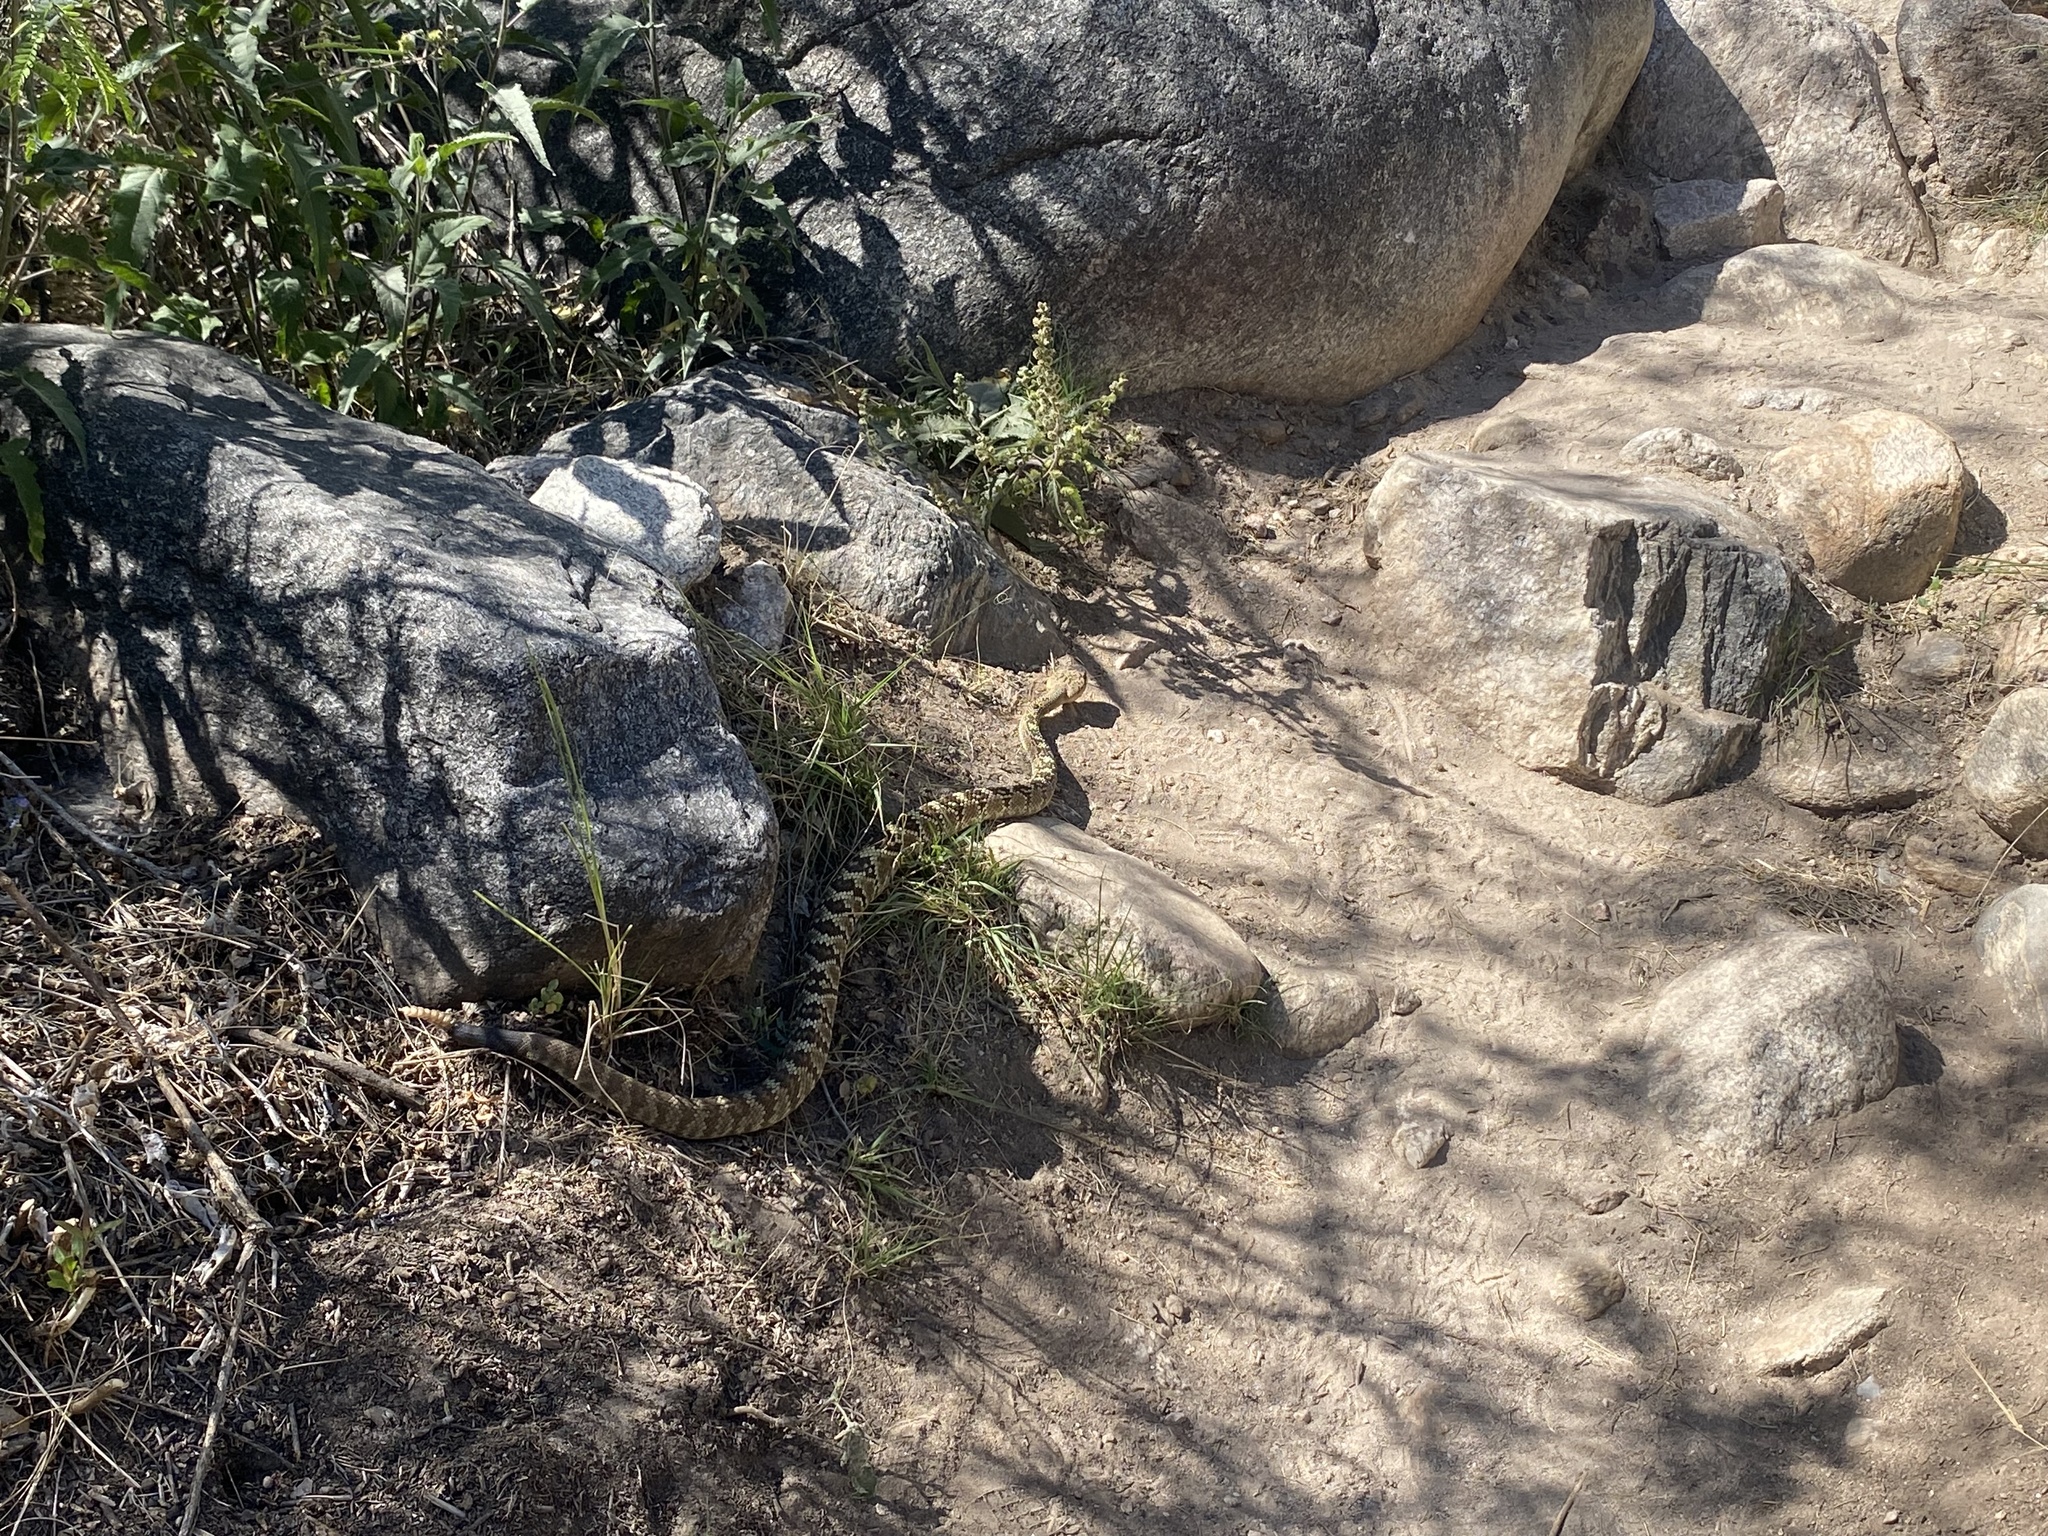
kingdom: Animalia
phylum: Chordata
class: Squamata
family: Viperidae
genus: Crotalus
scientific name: Crotalus molossus
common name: Black tailed rattlesnake
